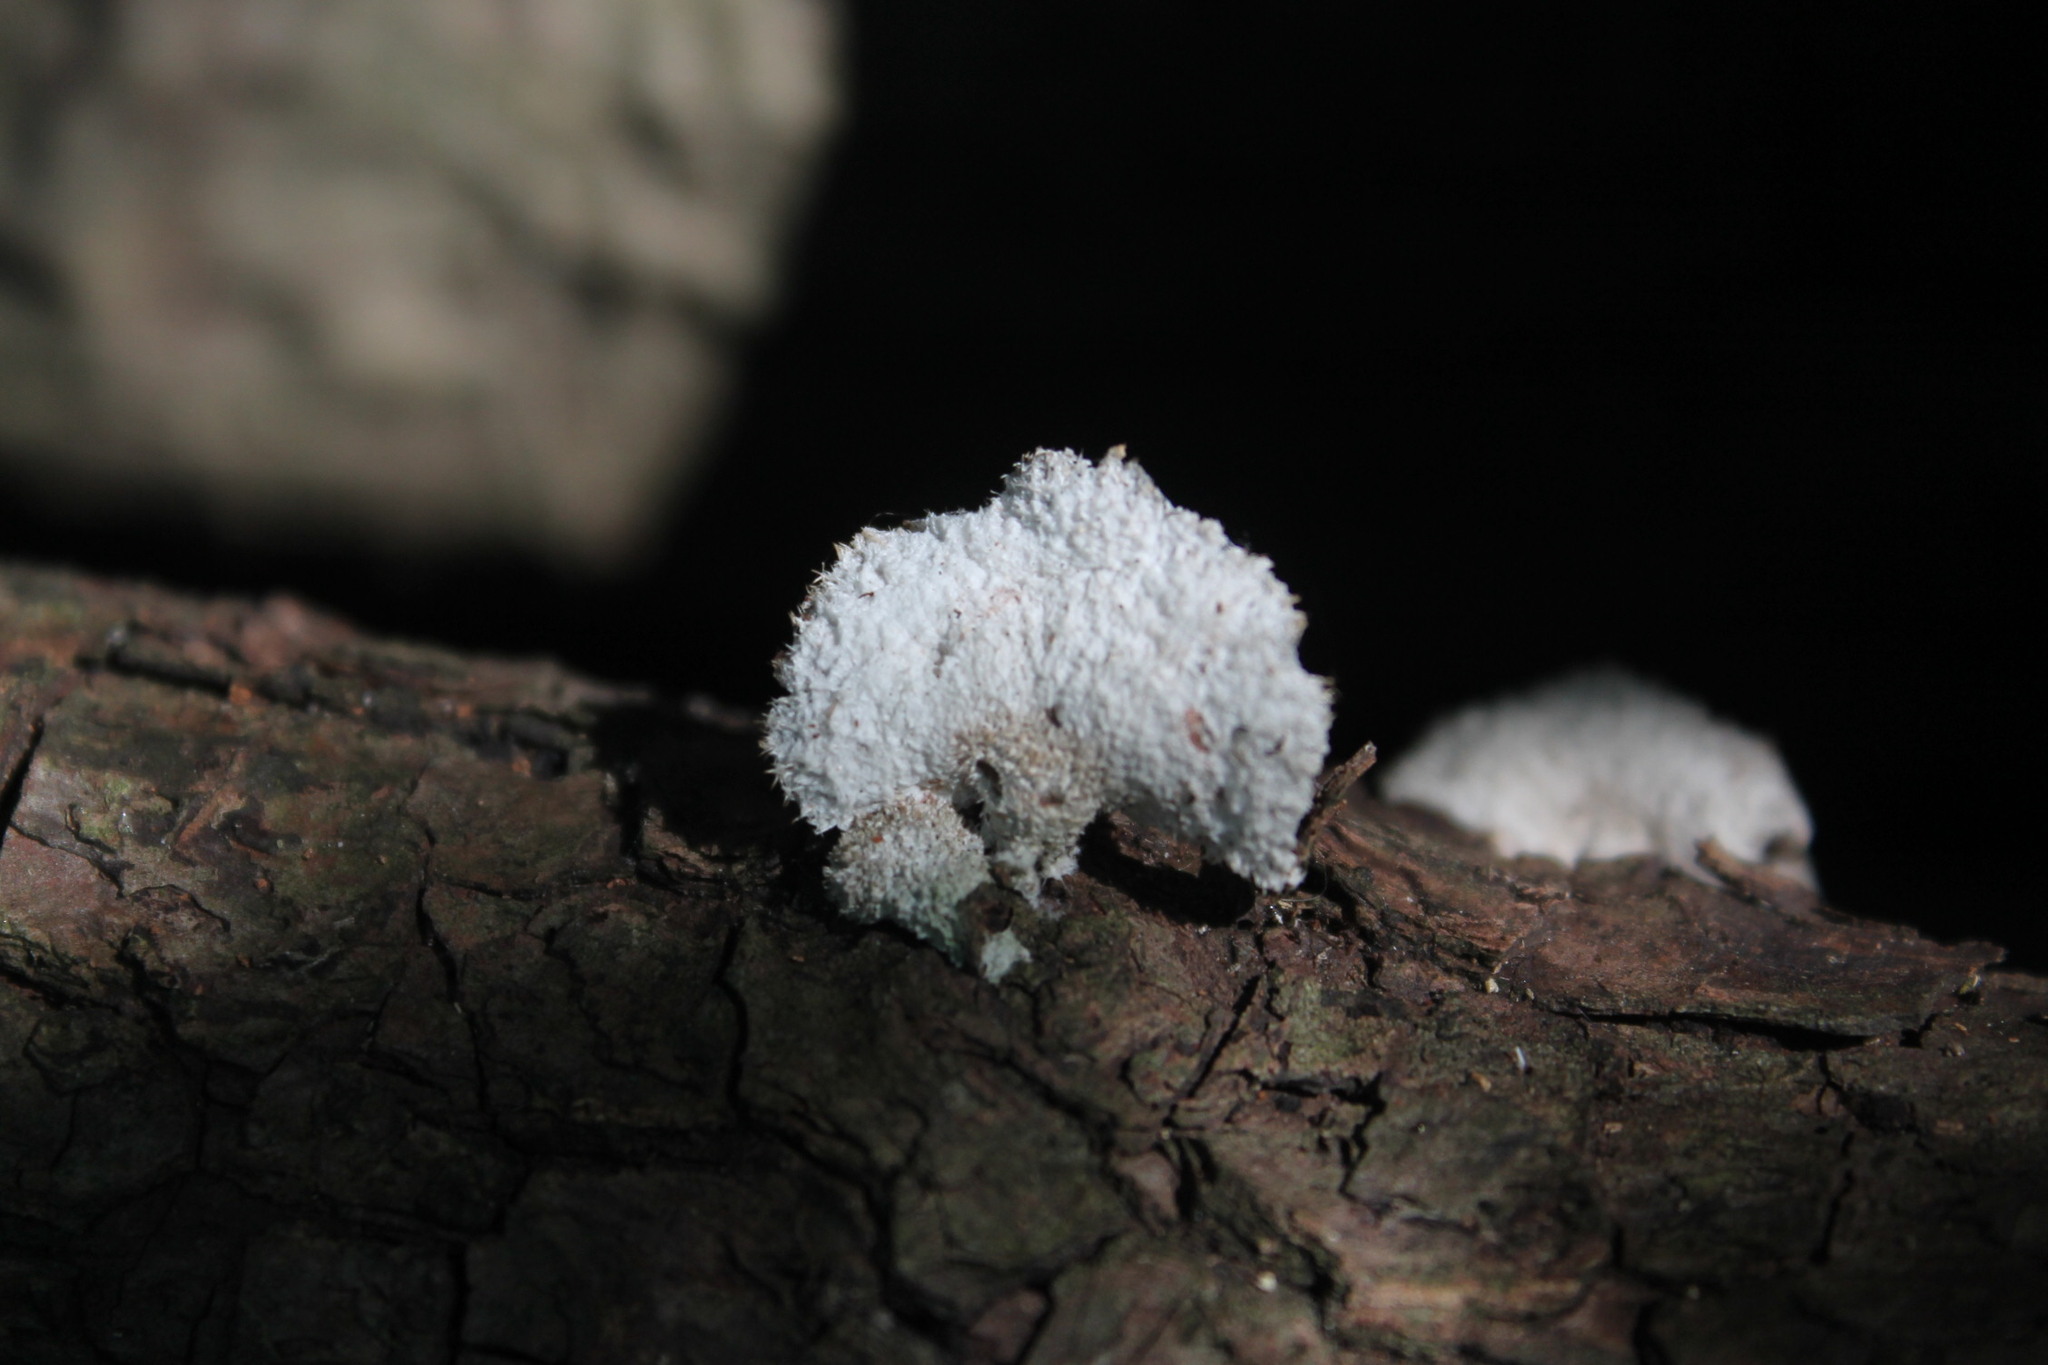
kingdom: Fungi
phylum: Basidiomycota
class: Agaricomycetes
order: Agaricales
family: Schizophyllaceae
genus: Schizophyllum
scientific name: Schizophyllum commune
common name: Common porecrust
